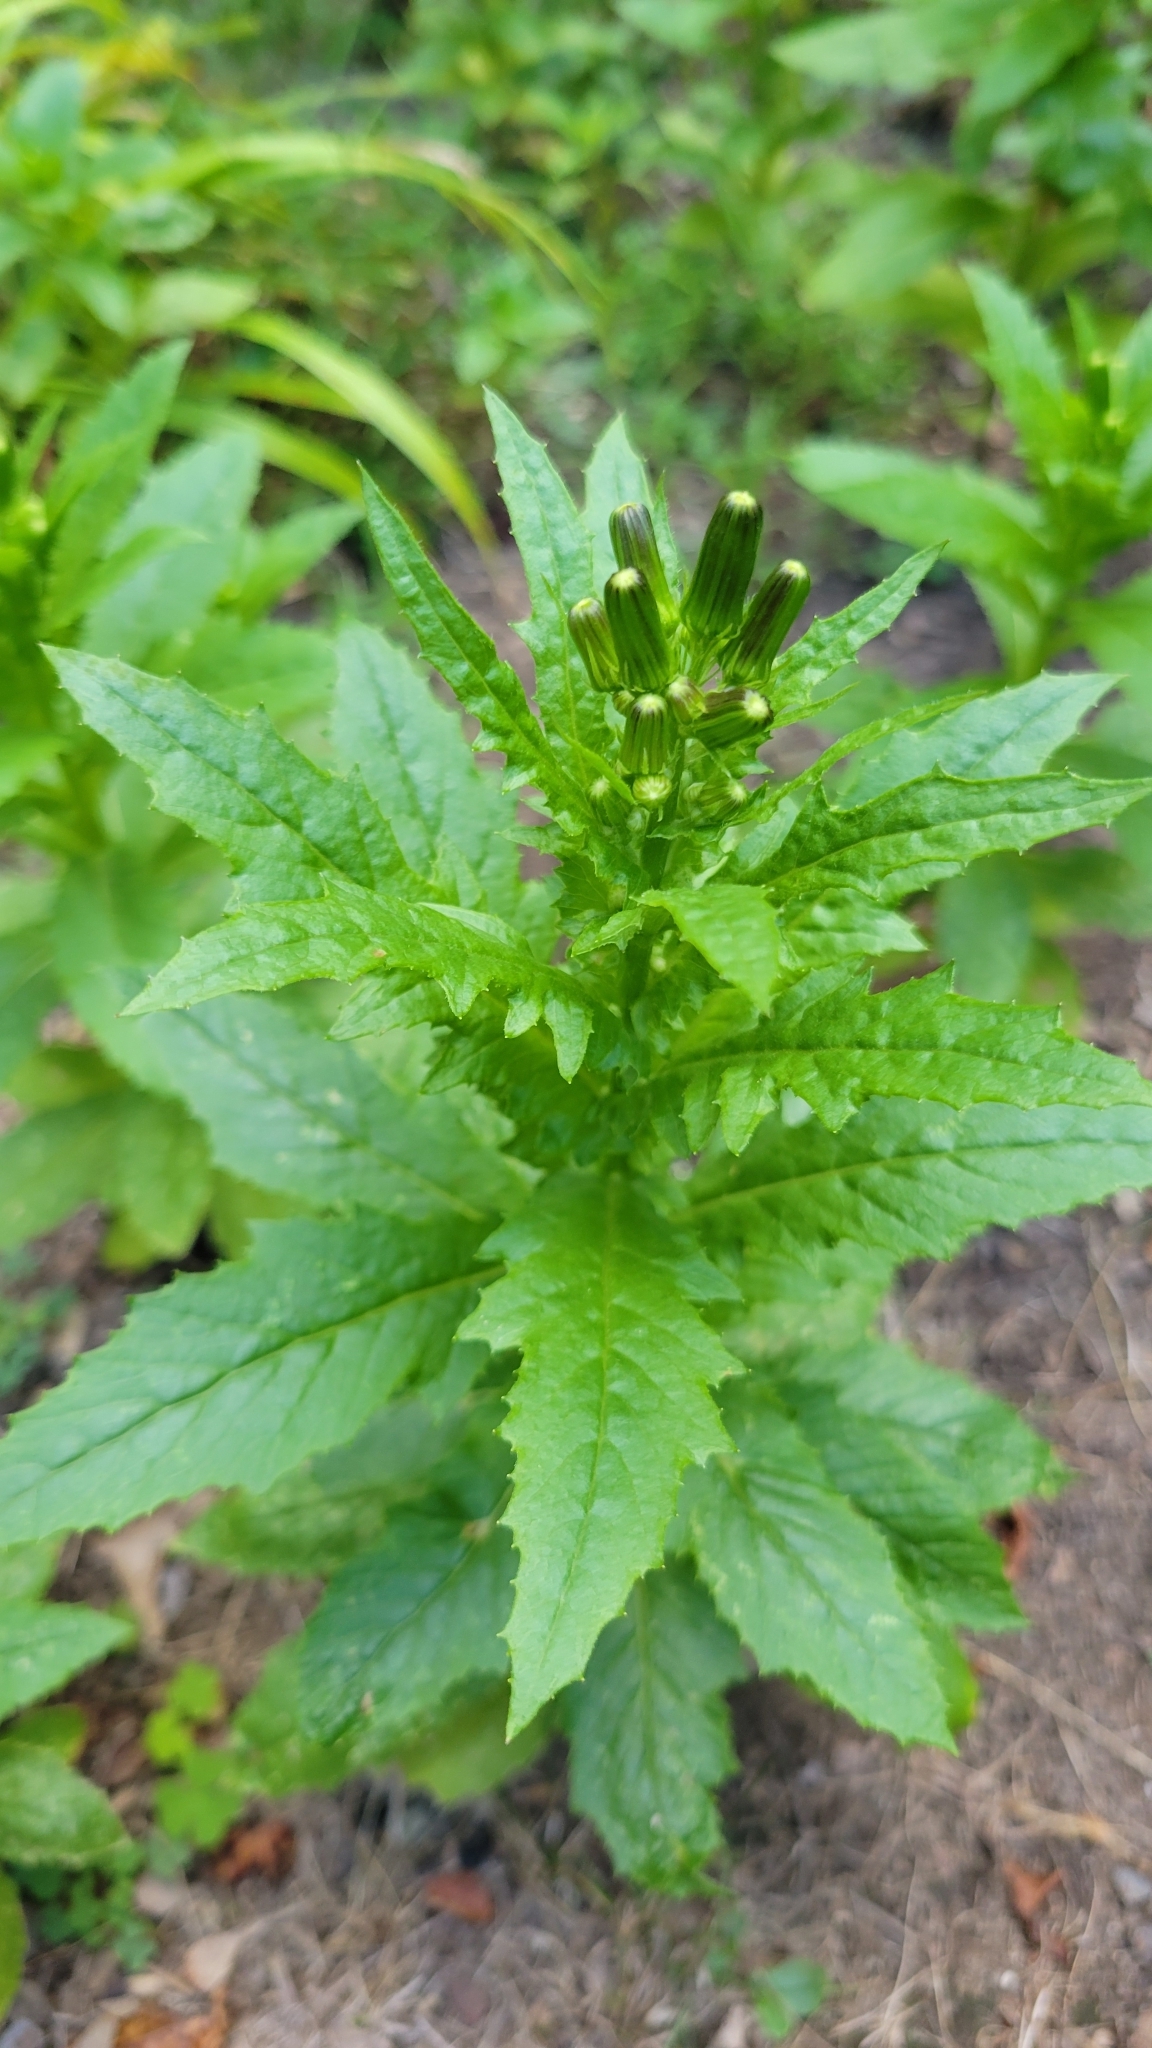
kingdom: Plantae
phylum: Tracheophyta
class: Magnoliopsida
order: Asterales
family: Asteraceae
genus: Erechtites
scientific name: Erechtites hieraciifolius
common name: American burnweed
